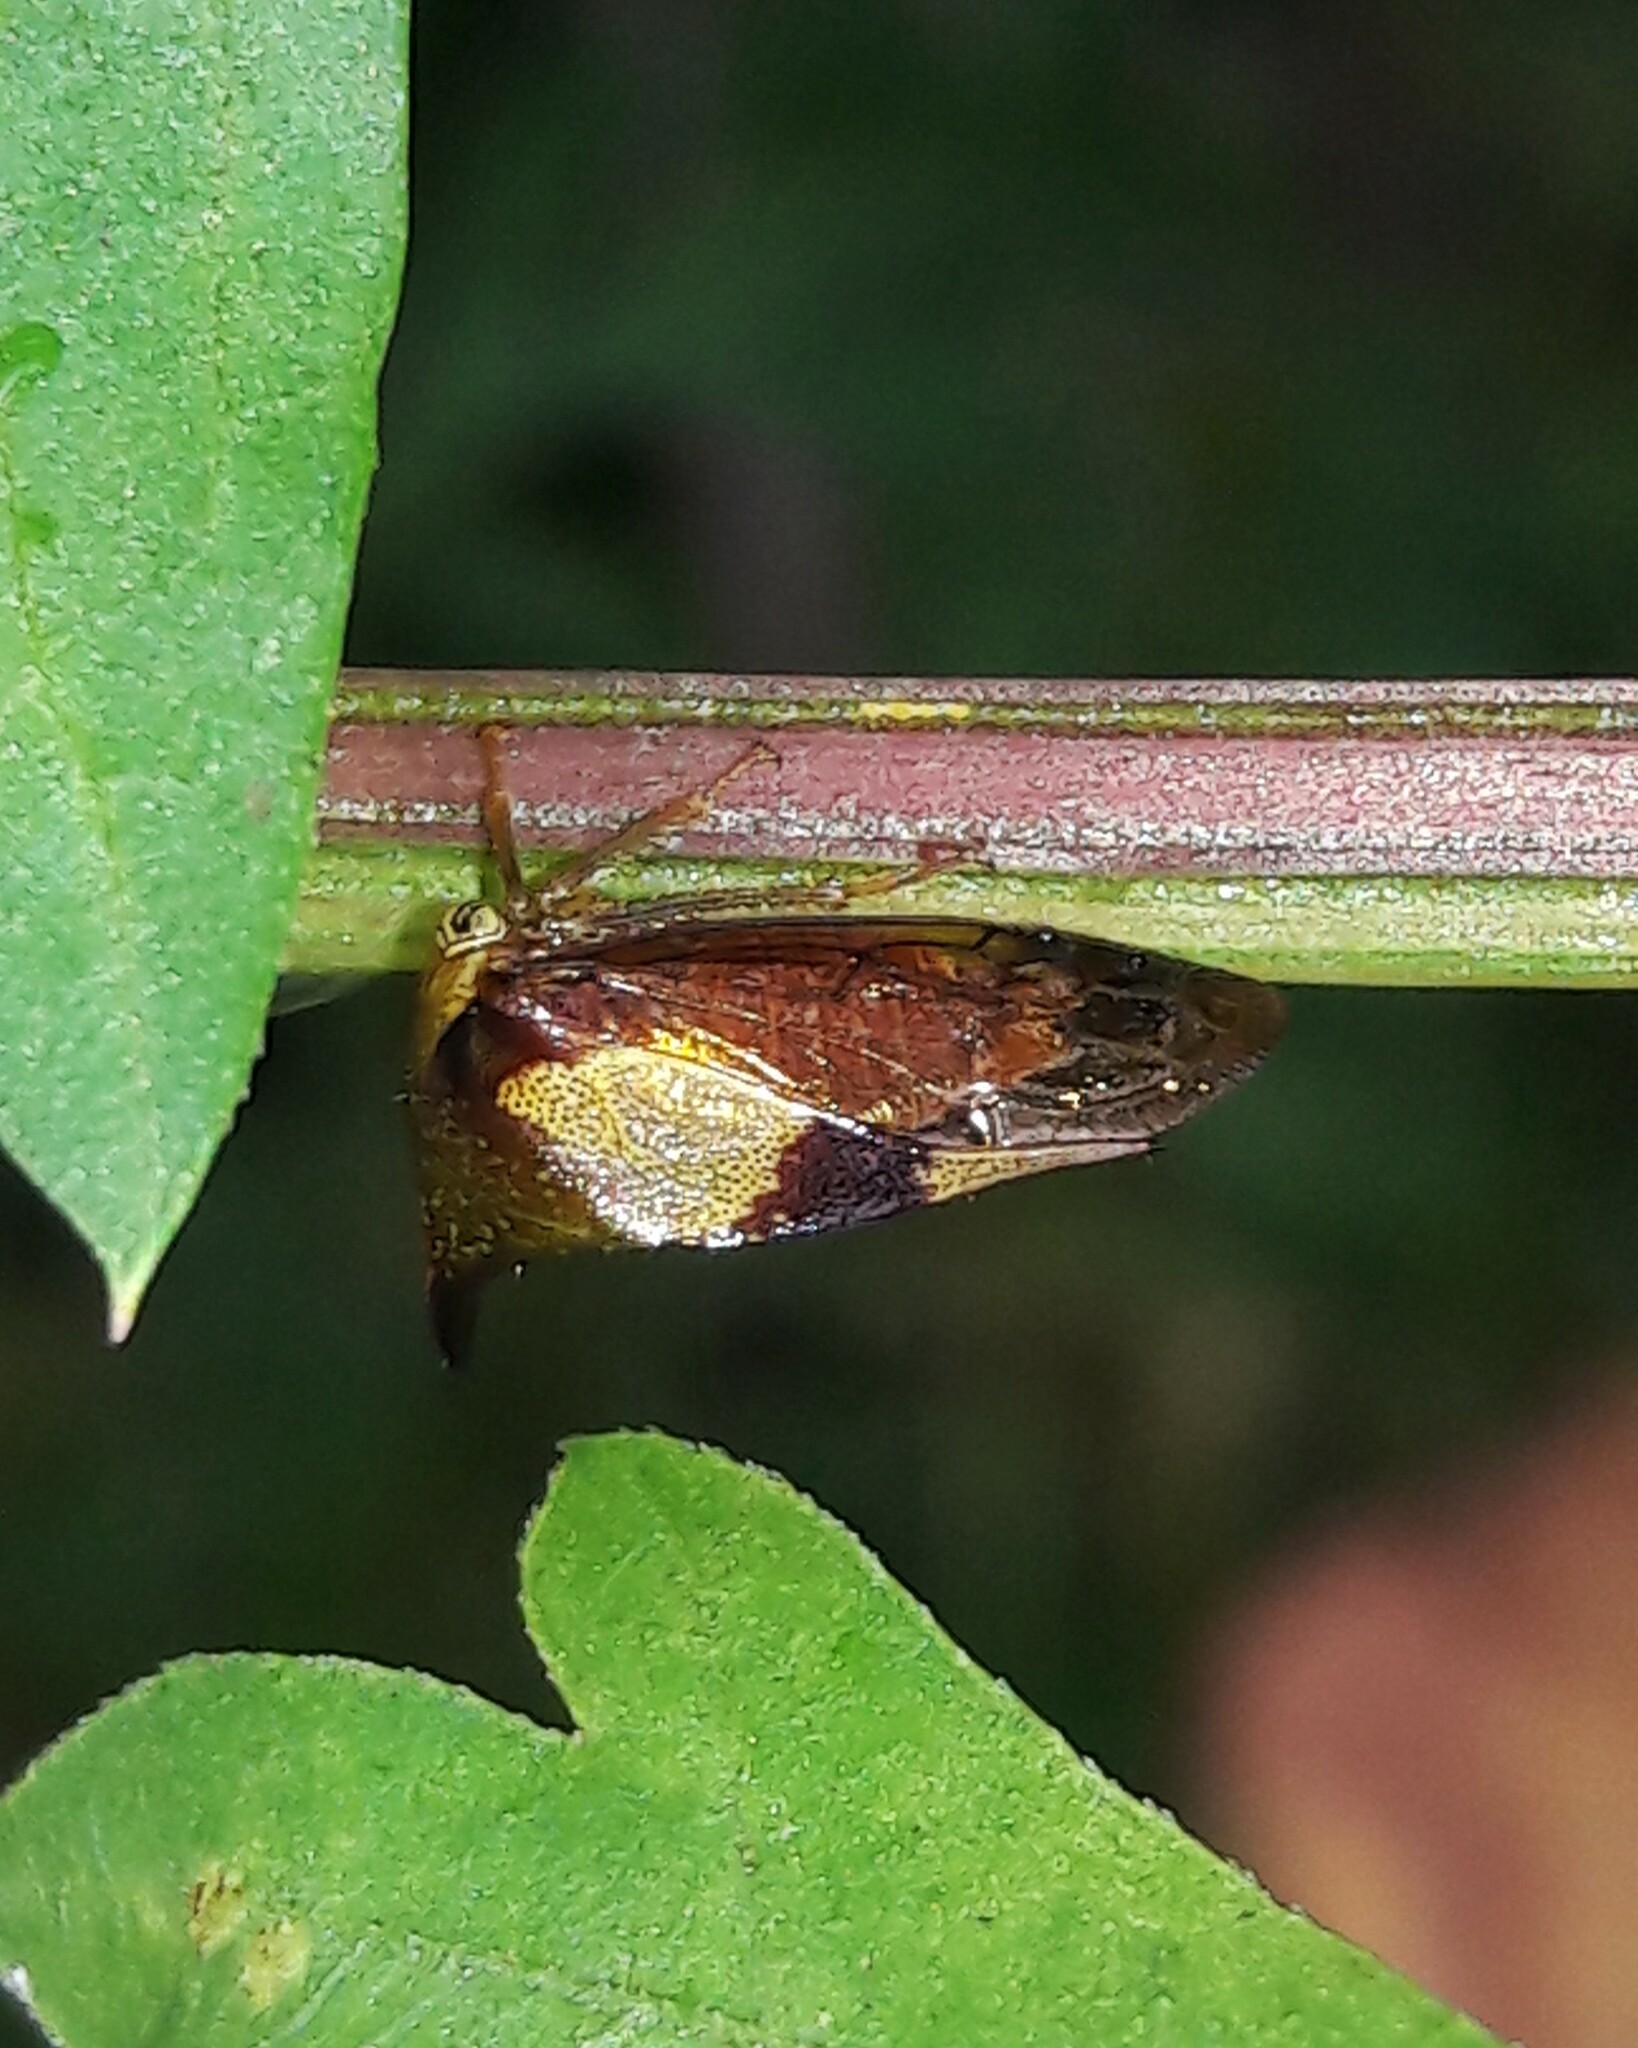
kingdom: Animalia
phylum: Arthropoda
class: Insecta
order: Hemiptera
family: Membracidae
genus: Ceresa
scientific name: Ceresa paulistana
